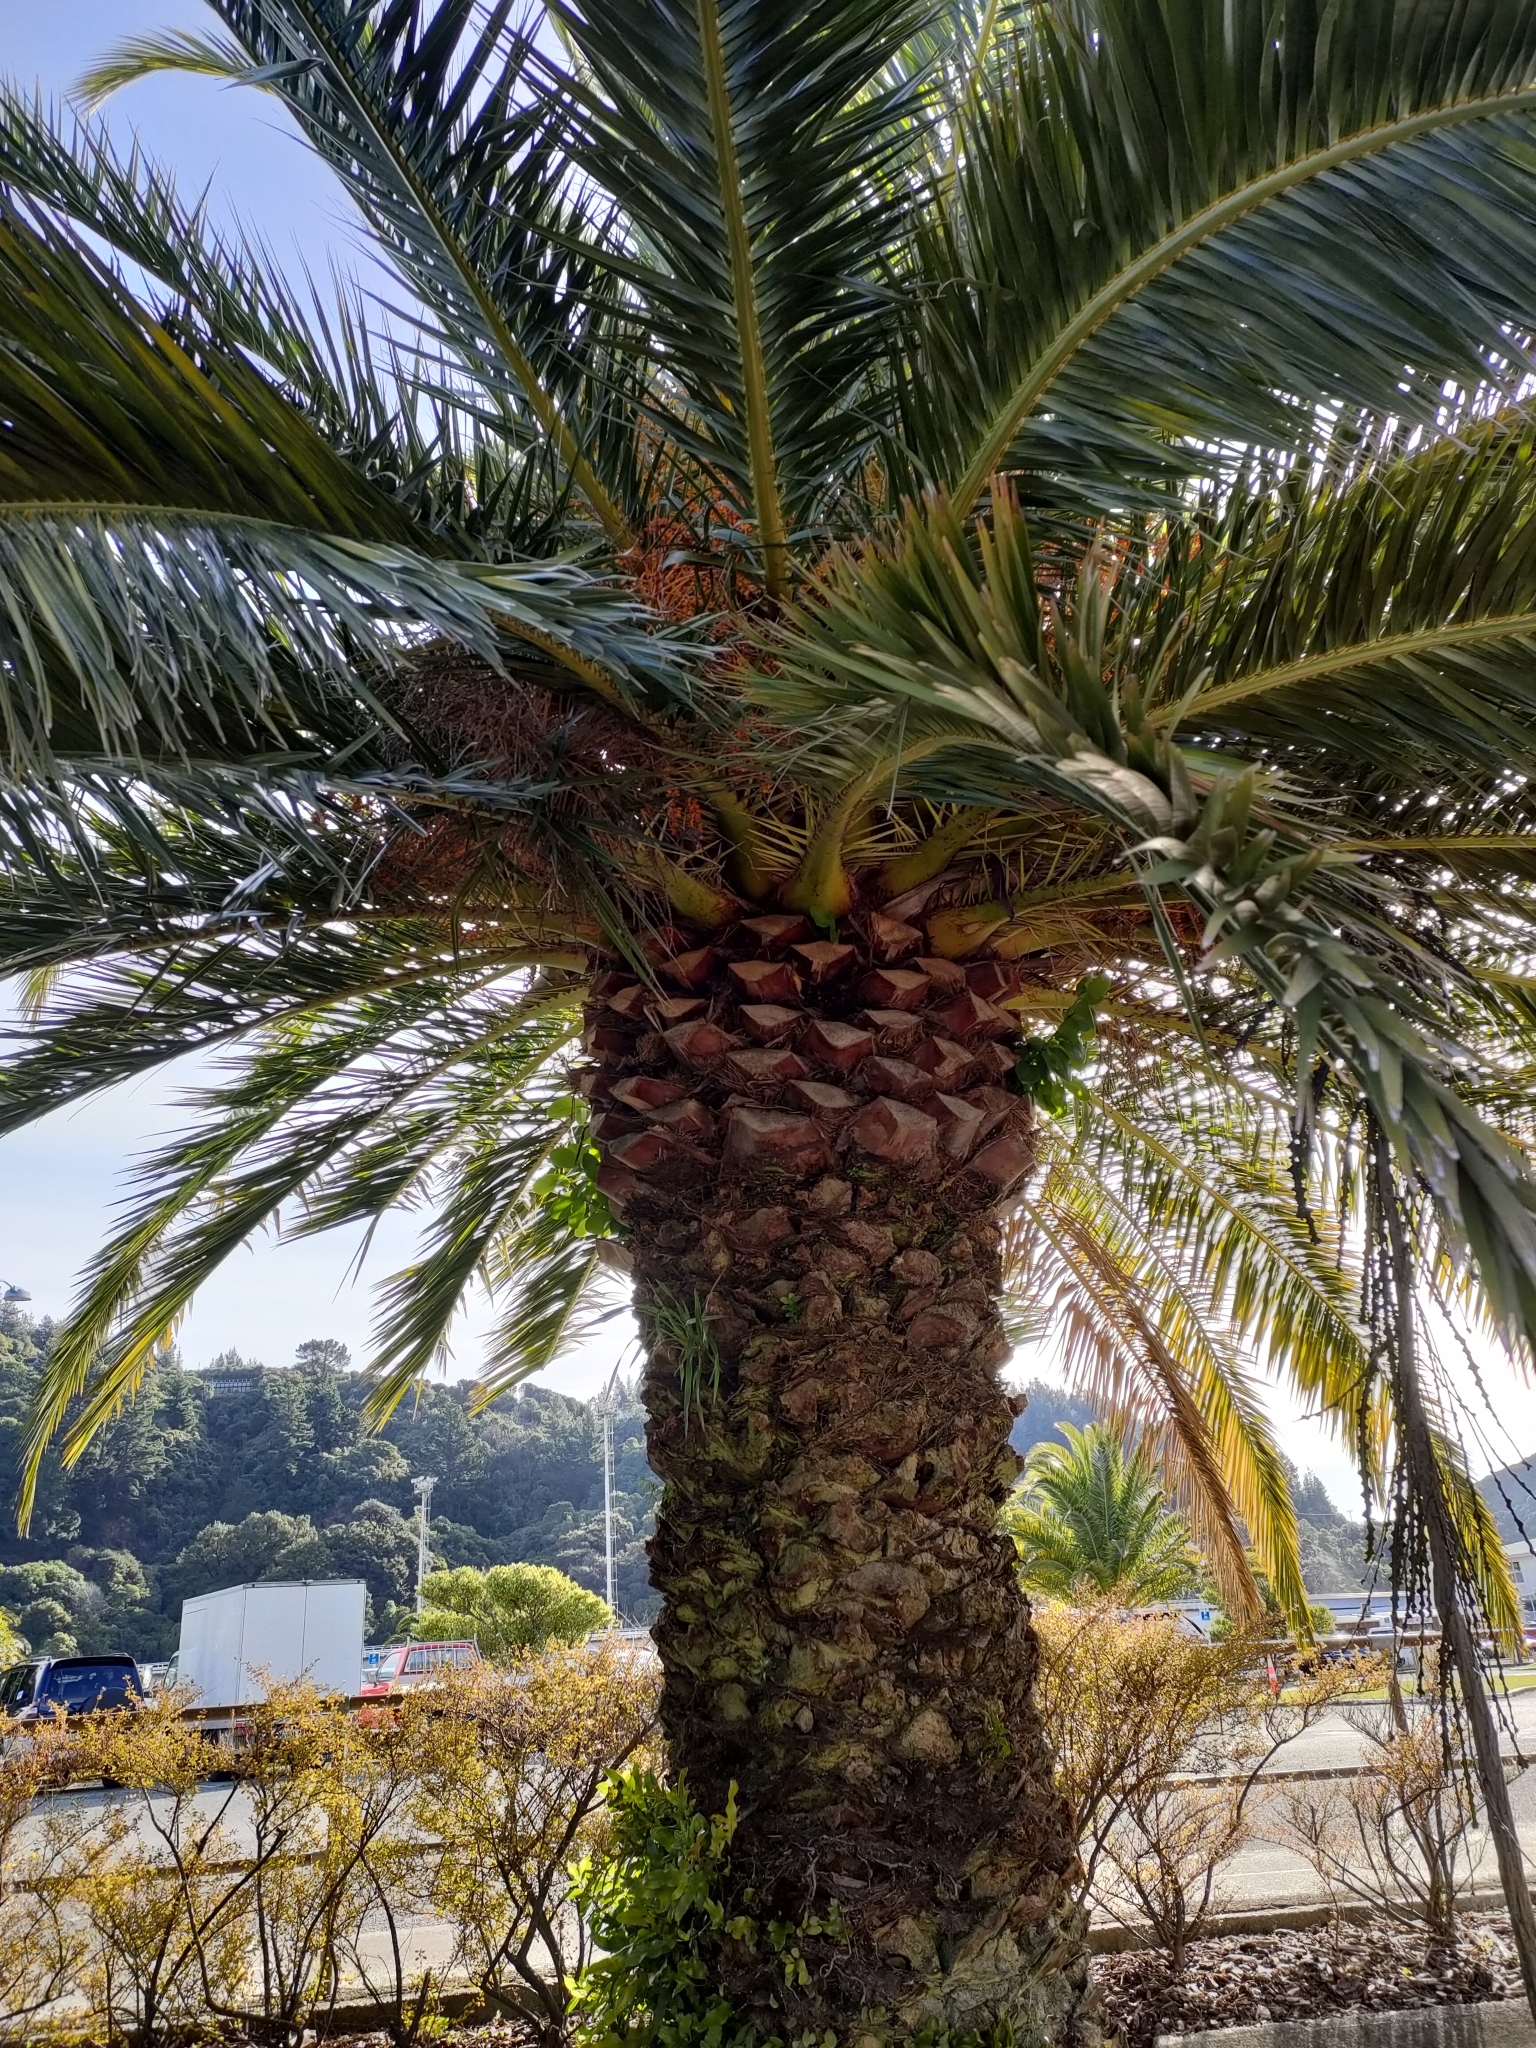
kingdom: Plantae
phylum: Tracheophyta
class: Liliopsida
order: Arecales
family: Arecaceae
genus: Phoenix
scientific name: Phoenix canariensis
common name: Canary island date palm
